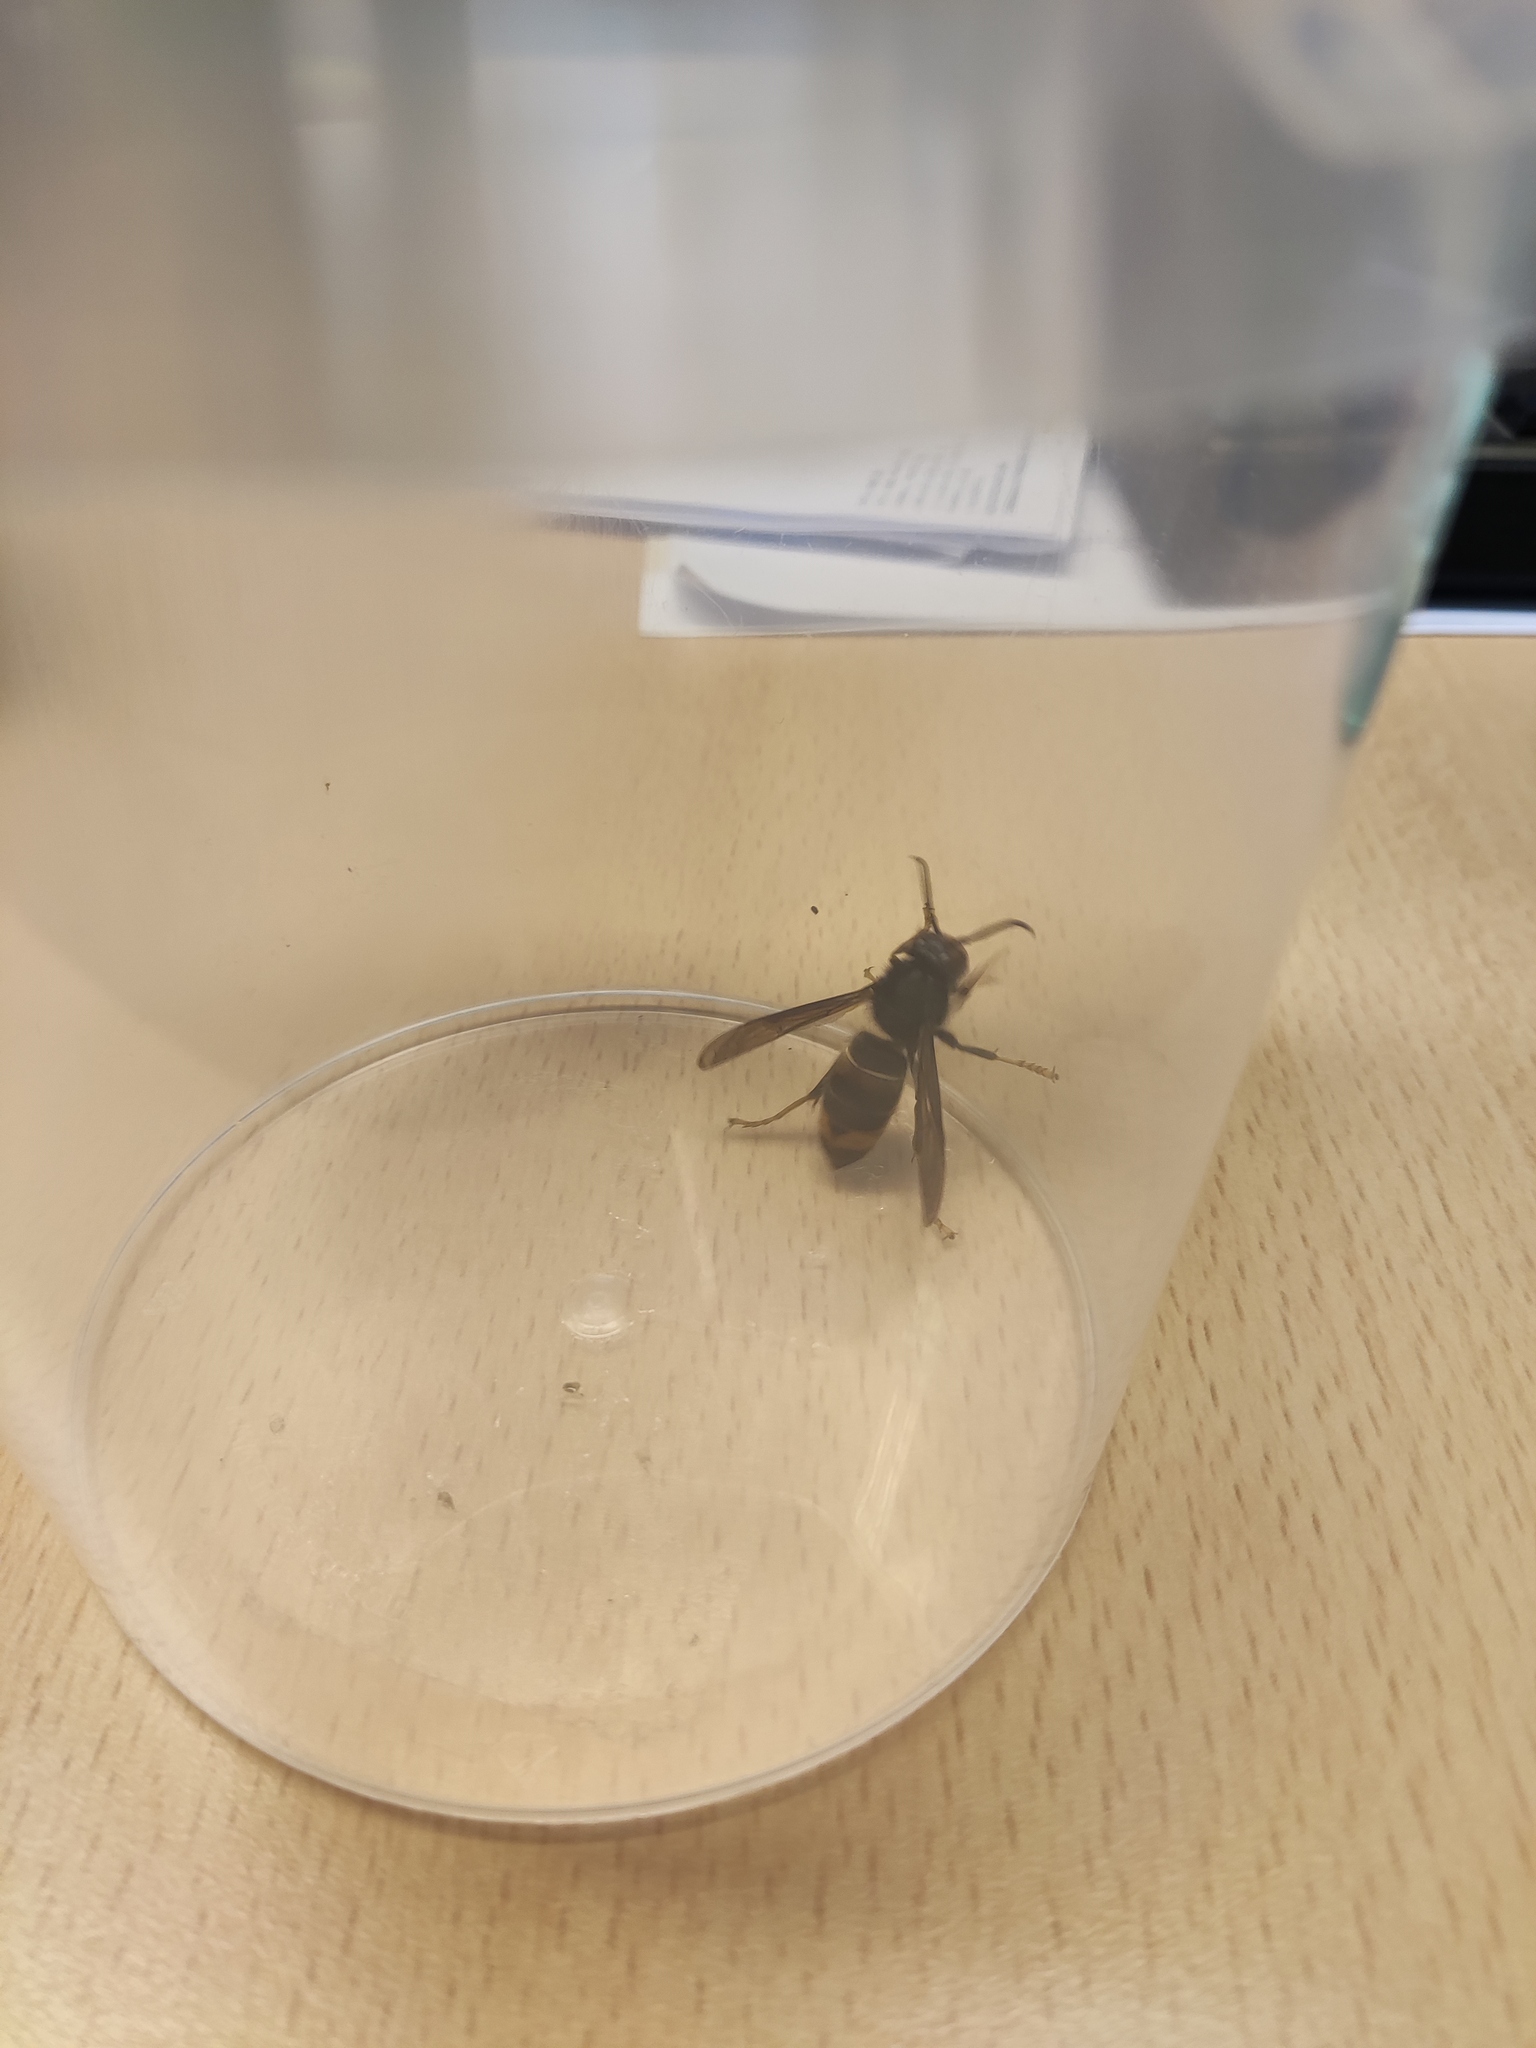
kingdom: Animalia
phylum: Arthropoda
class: Insecta
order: Hymenoptera
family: Vespidae
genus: Vespa
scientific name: Vespa velutina
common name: Asian hornet
